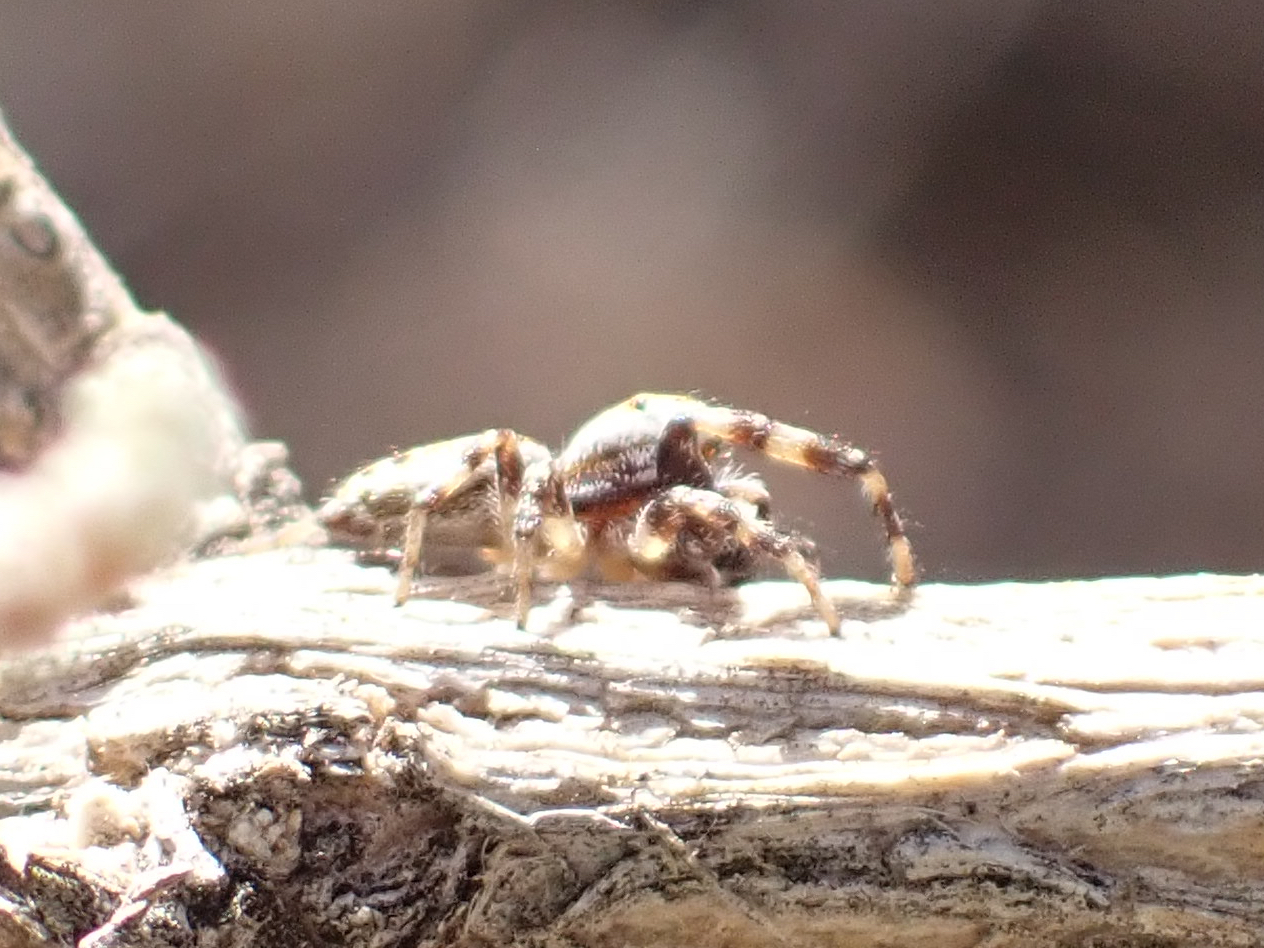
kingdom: Animalia
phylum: Arthropoda
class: Arachnida
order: Araneae
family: Salticidae
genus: Metaphidippus
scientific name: Metaphidippus chera
